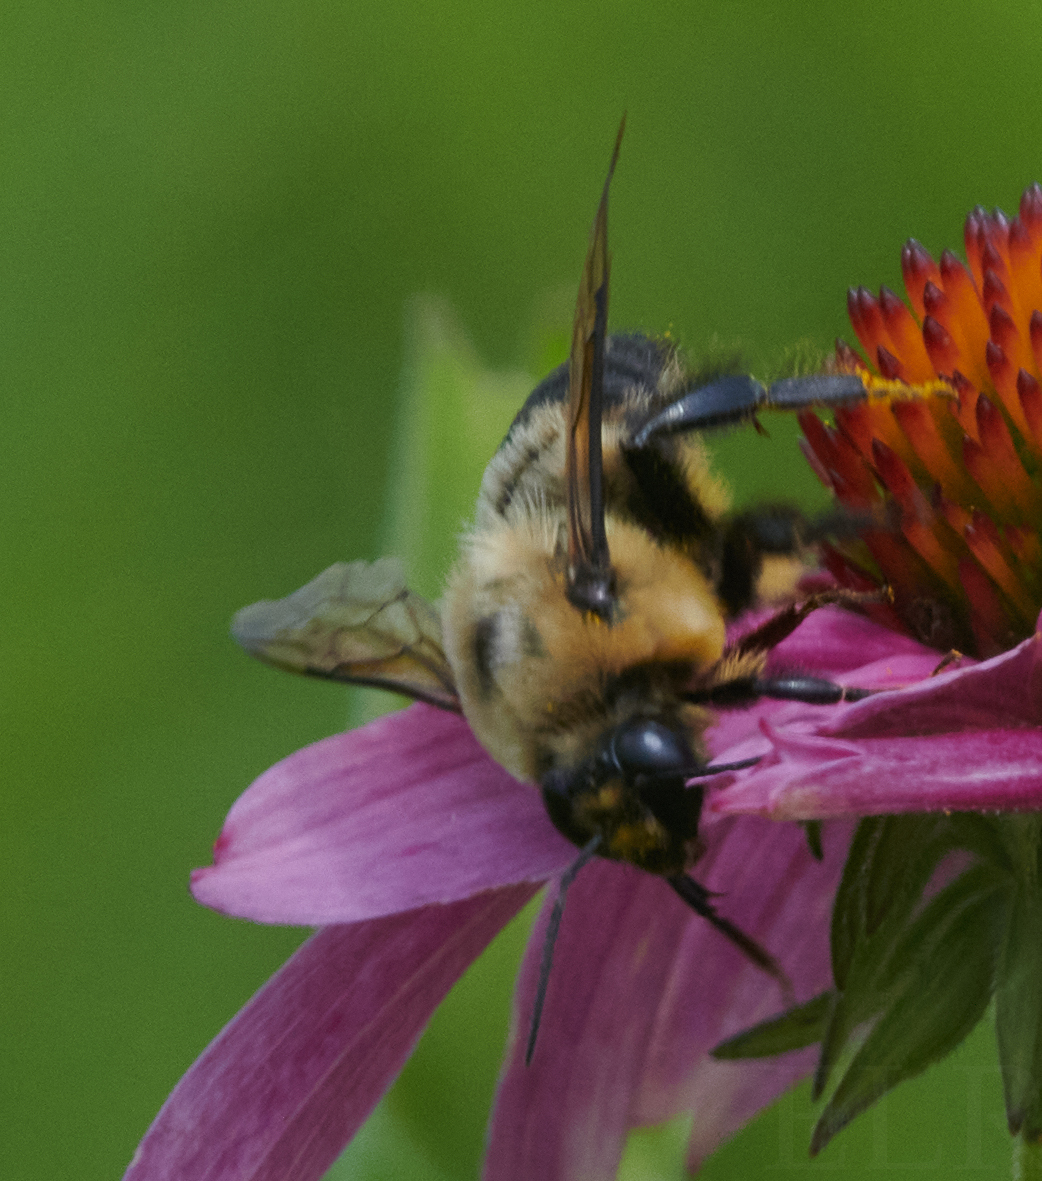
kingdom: Animalia
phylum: Arthropoda
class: Insecta
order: Hymenoptera
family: Apidae
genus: Bombus
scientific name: Bombus griseocollis
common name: Brown-belted bumble bee
